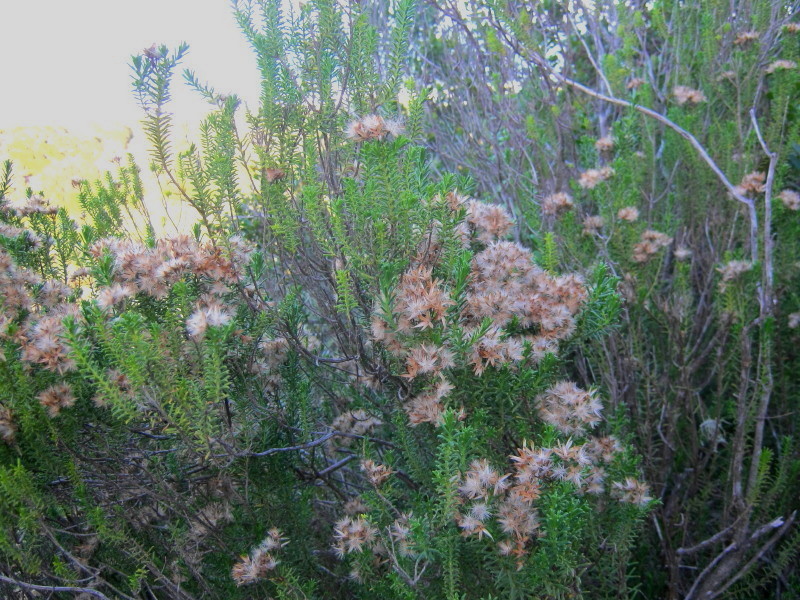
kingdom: Plantae
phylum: Tracheophyta
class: Magnoliopsida
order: Asterales
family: Asteraceae
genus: Pteronia
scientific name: Pteronia uncinata
